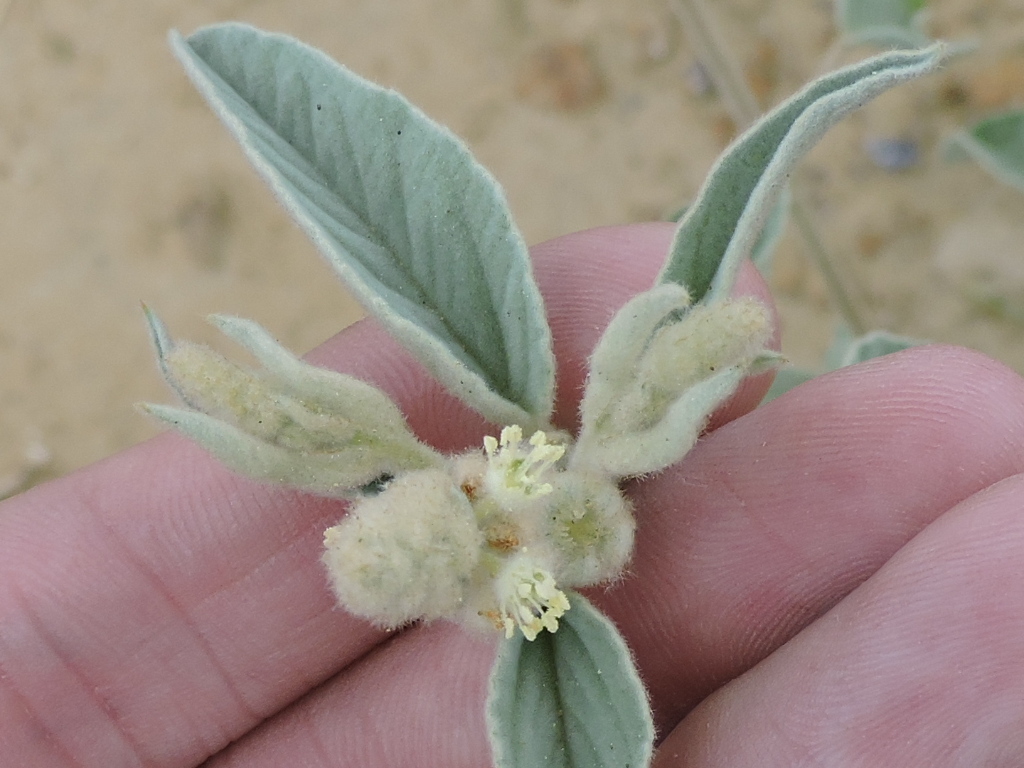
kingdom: Plantae
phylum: Tracheophyta
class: Magnoliopsida
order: Malpighiales
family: Euphorbiaceae
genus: Croton
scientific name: Croton lindheimeri
